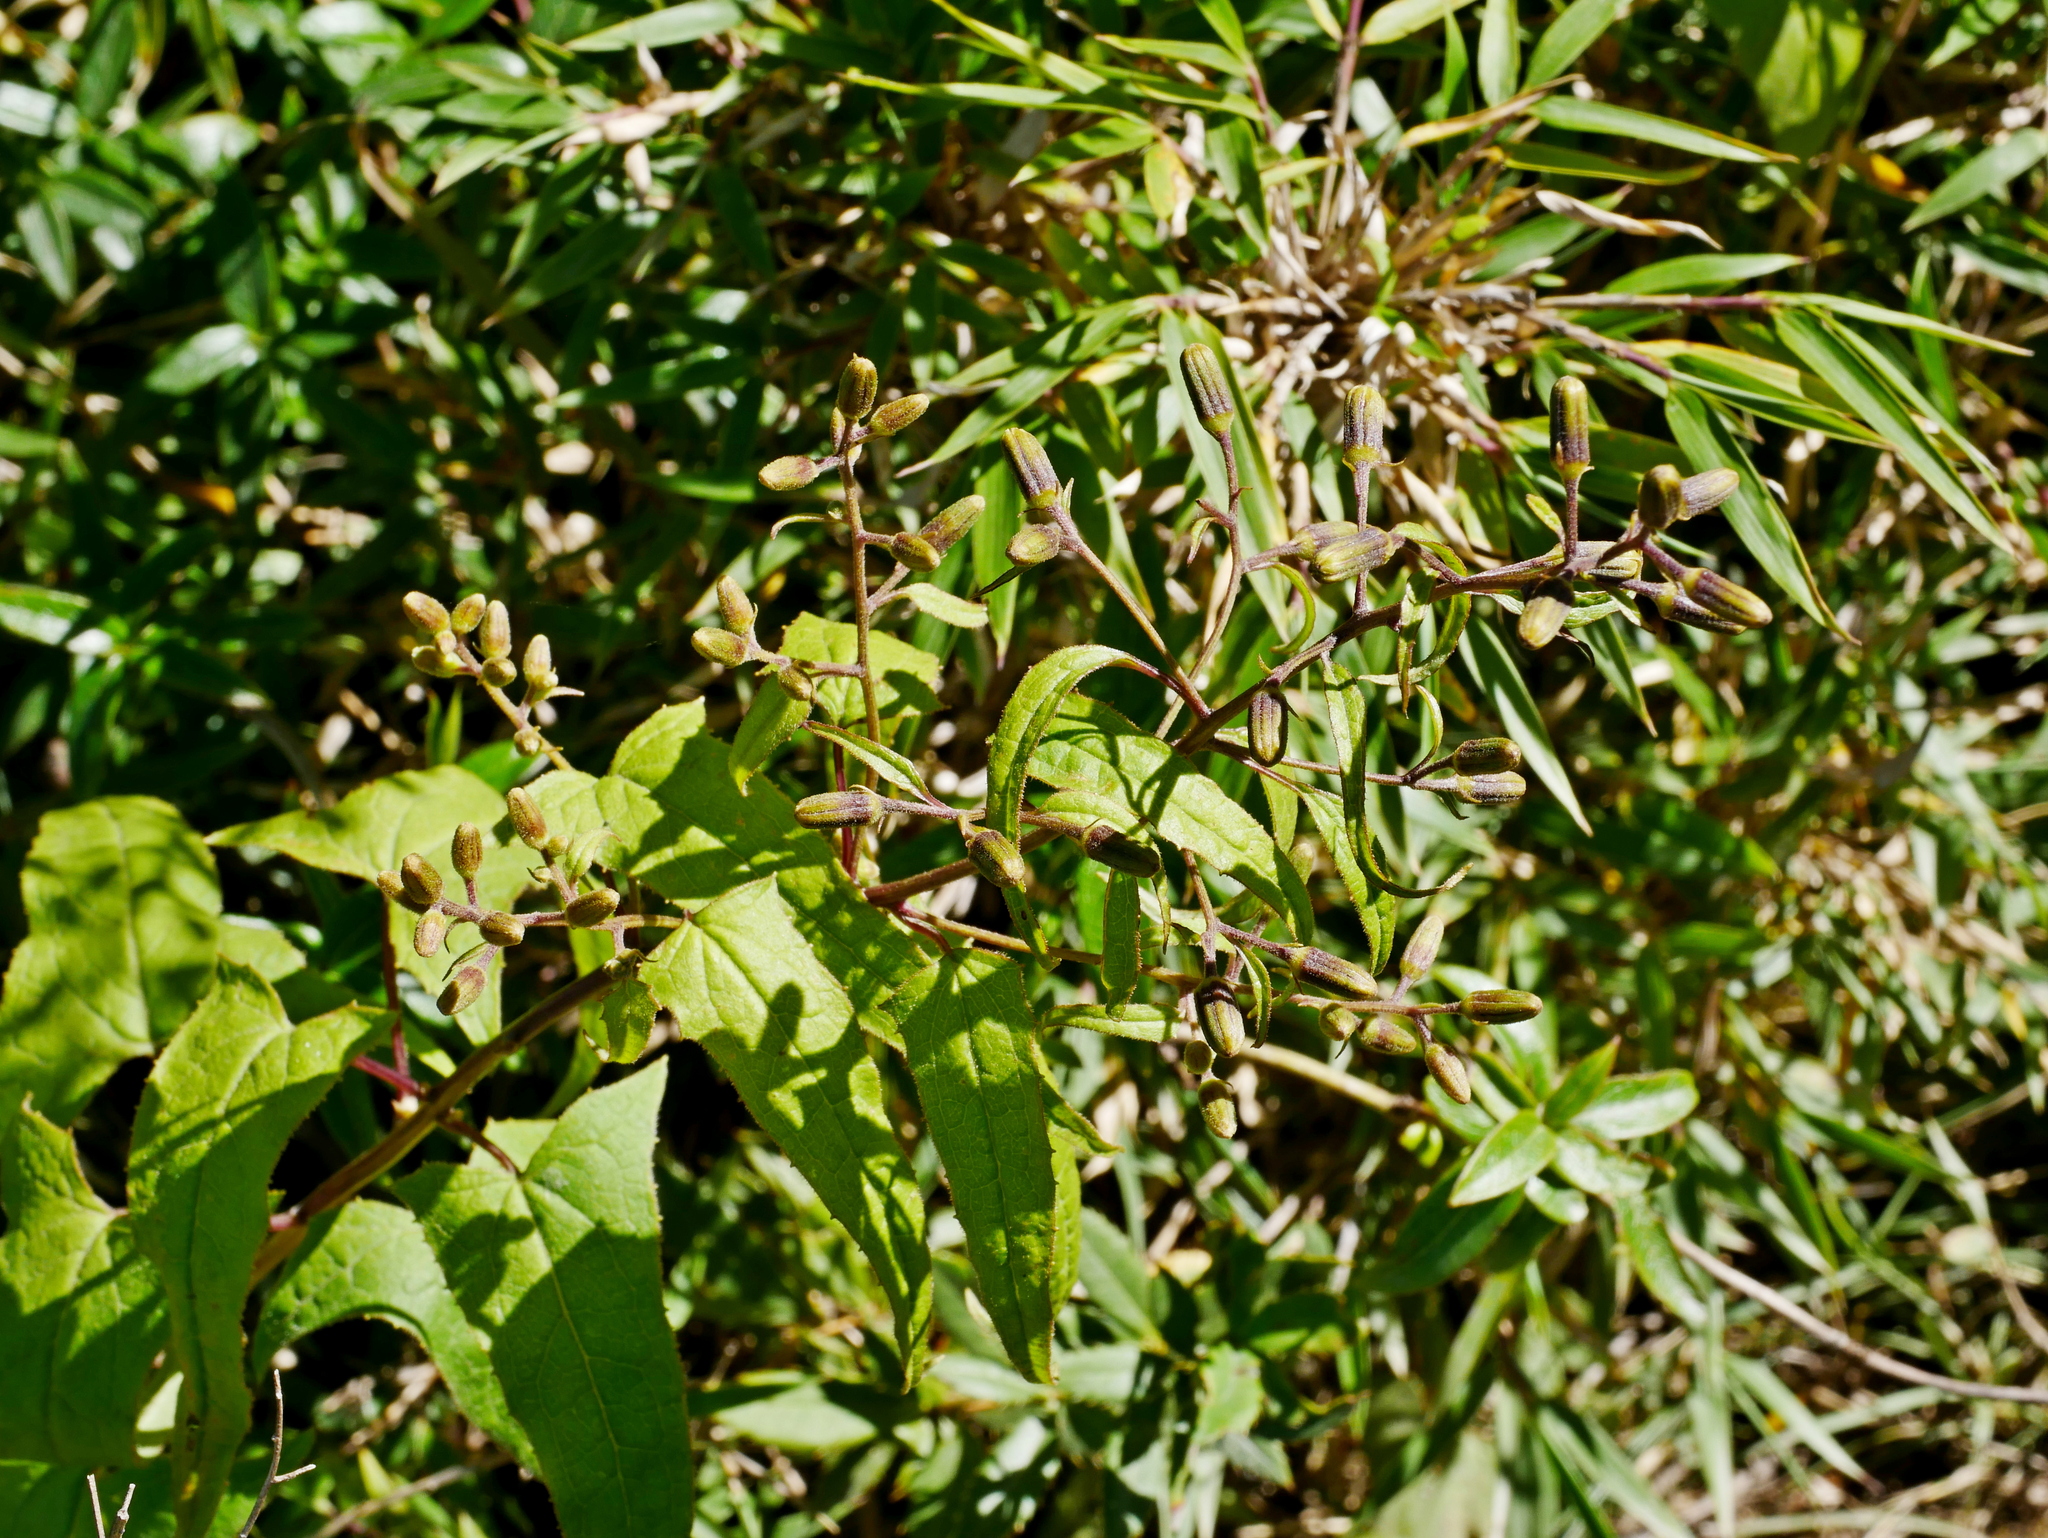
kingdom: Plantae
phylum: Tracheophyta
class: Magnoliopsida
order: Asterales
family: Asteraceae
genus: Parasenecio
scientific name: Parasenecio nokoensis
